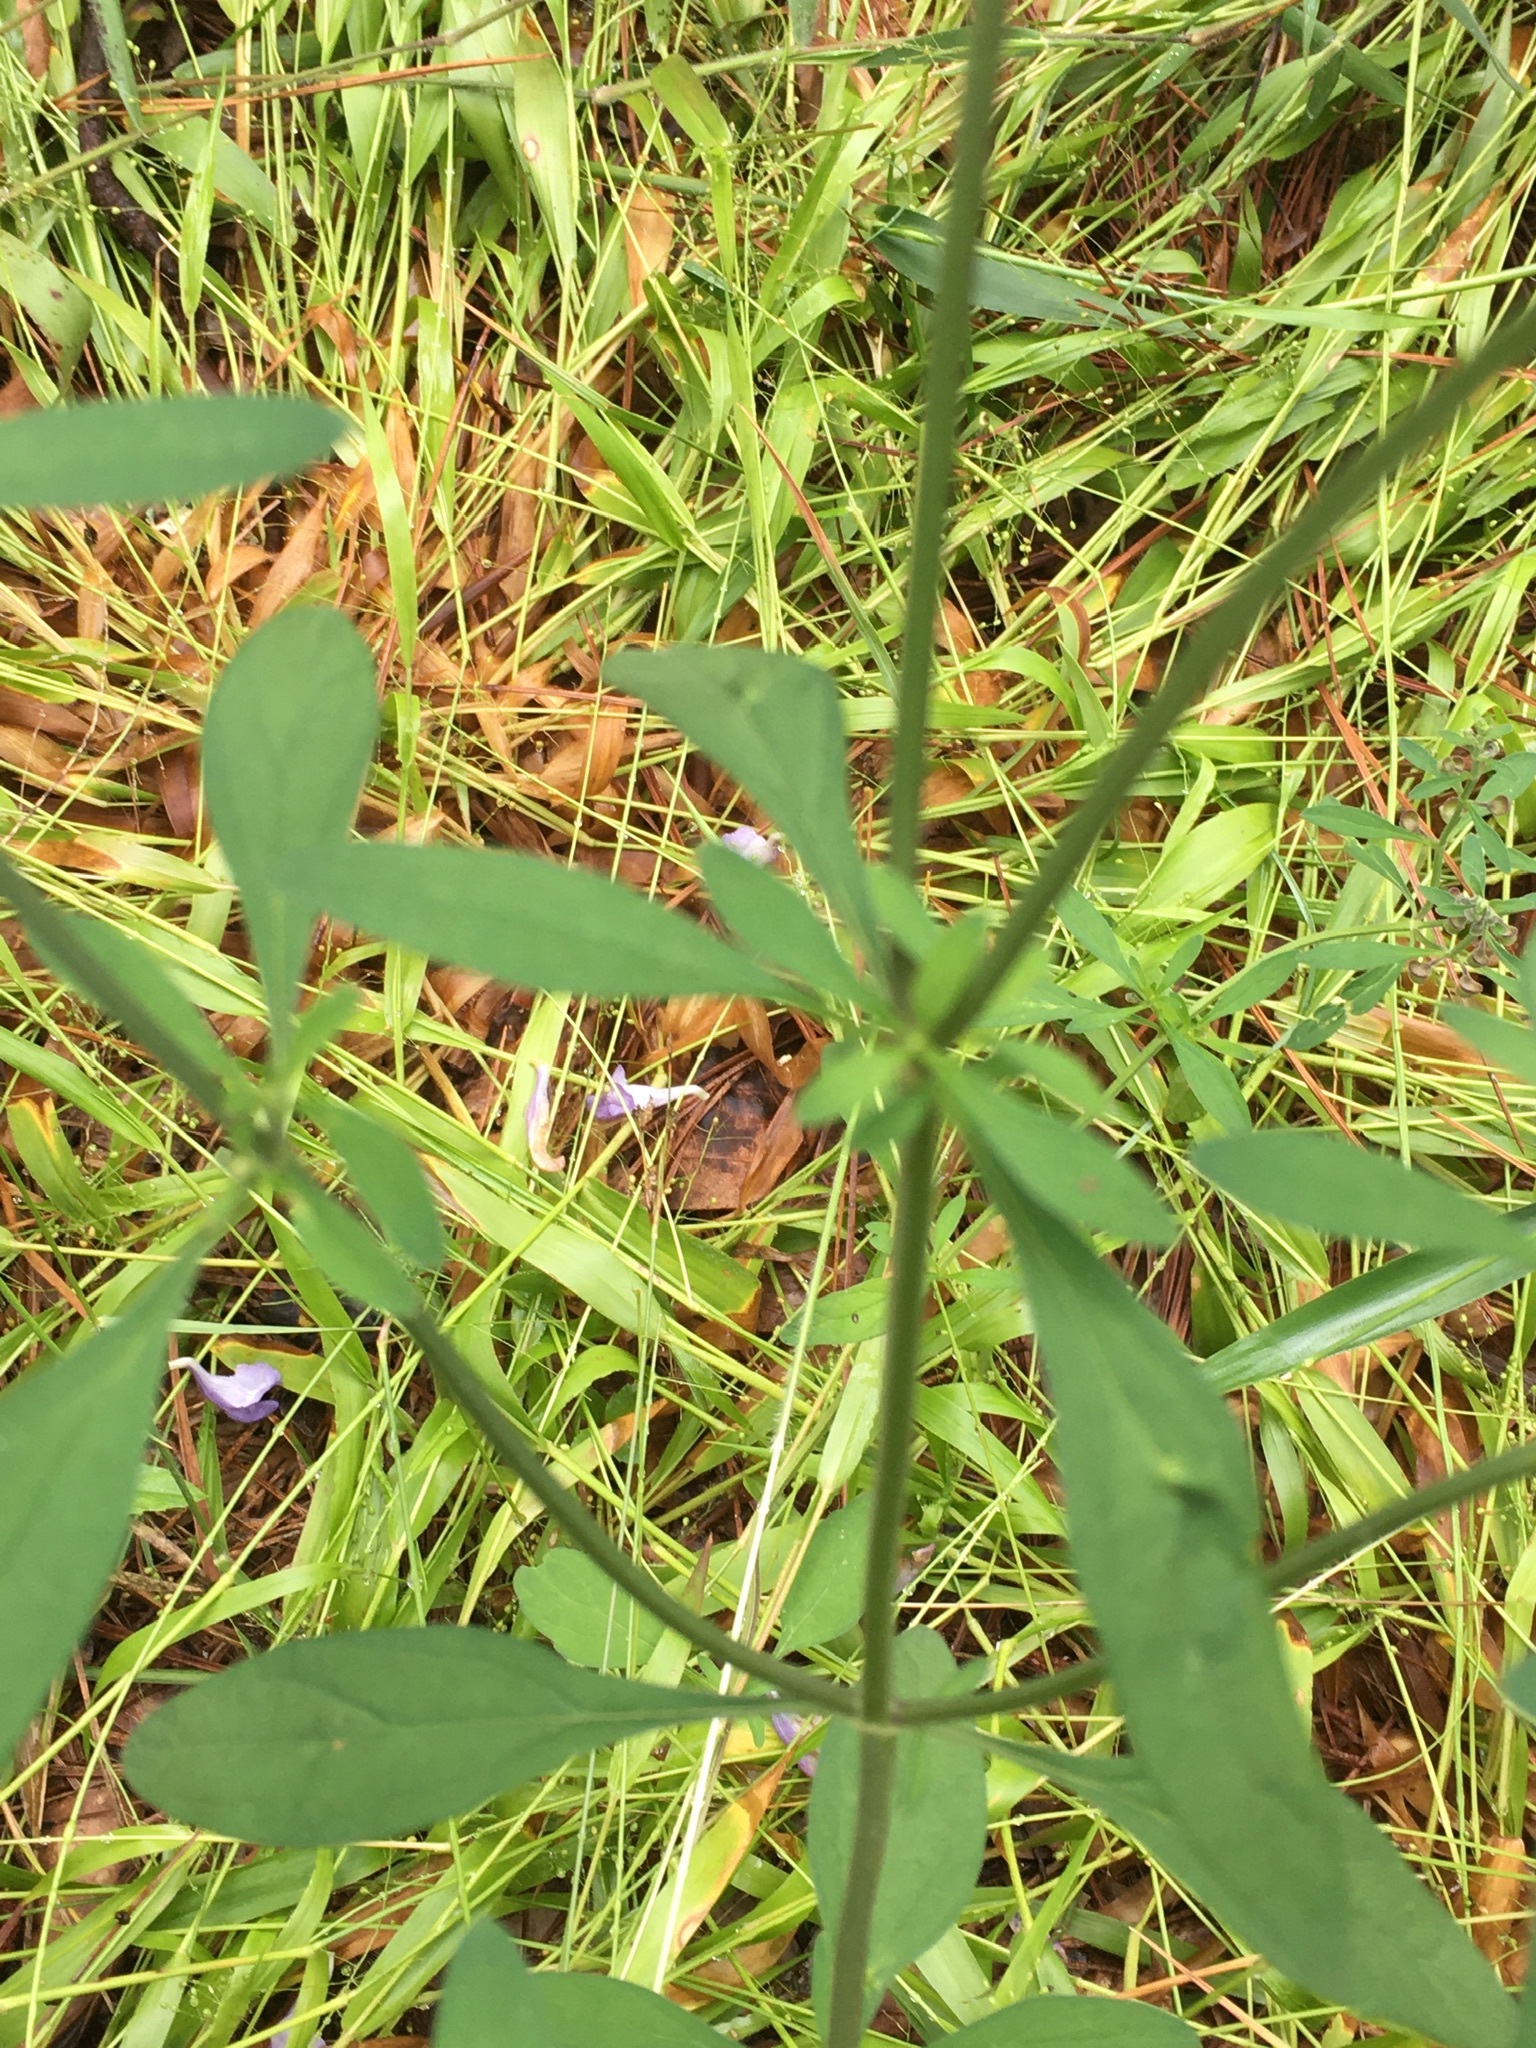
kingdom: Plantae
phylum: Tracheophyta
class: Magnoliopsida
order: Lamiales
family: Lamiaceae
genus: Scutellaria
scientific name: Scutellaria integrifolia
